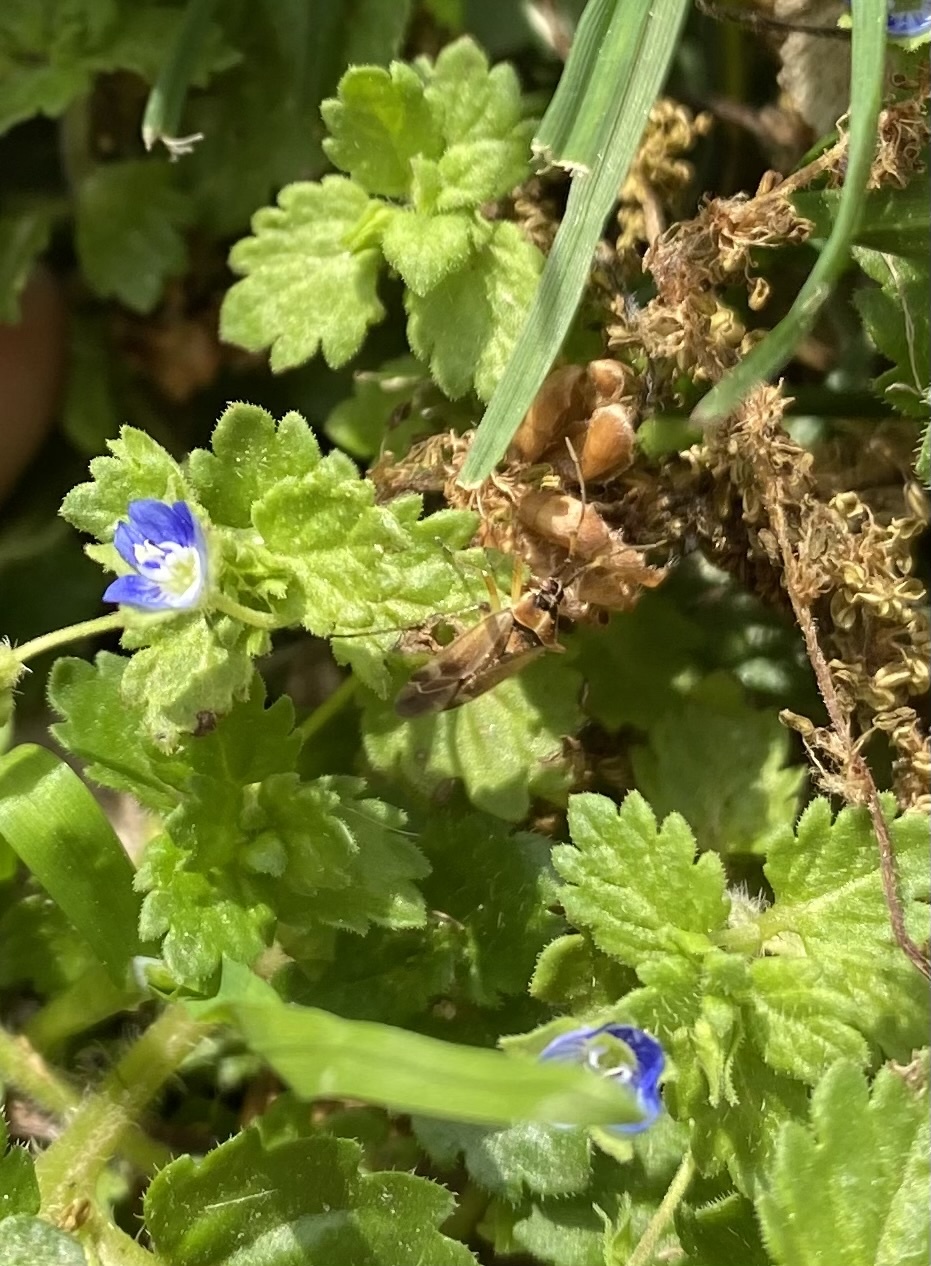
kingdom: Plantae
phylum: Tracheophyta
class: Magnoliopsida
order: Lamiales
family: Plantaginaceae
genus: Veronica
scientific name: Veronica polita
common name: Grey field-speedwell
